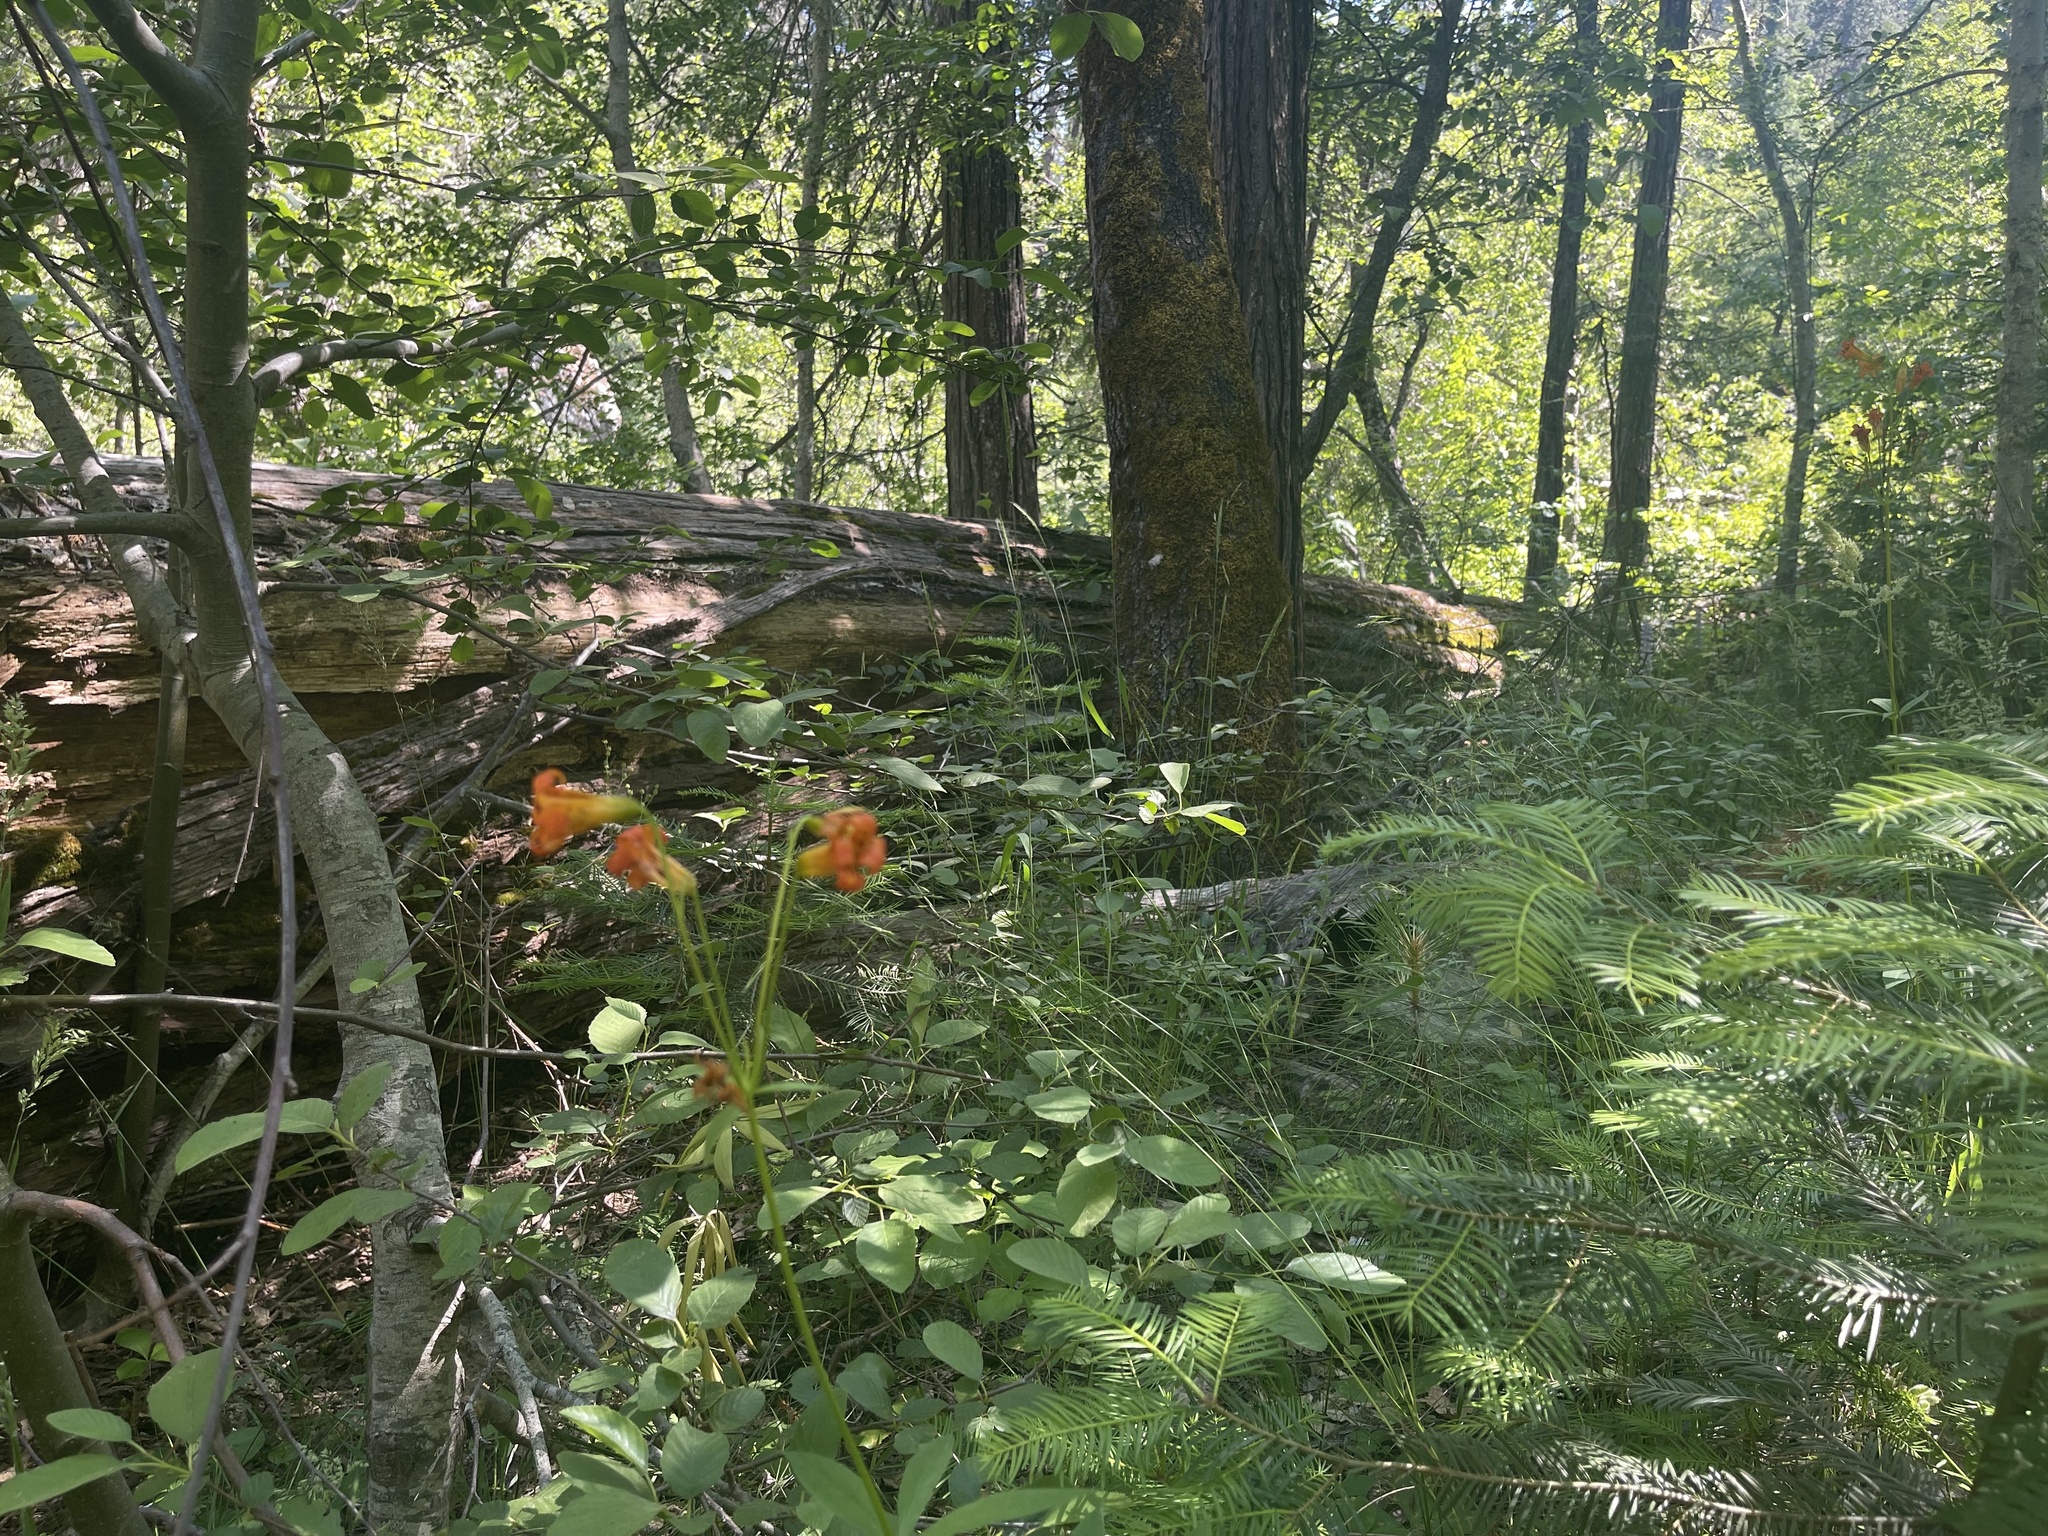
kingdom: Plantae
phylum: Tracheophyta
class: Liliopsida
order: Liliales
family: Liliaceae
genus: Lilium
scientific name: Lilium parvum
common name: Alpine lily
